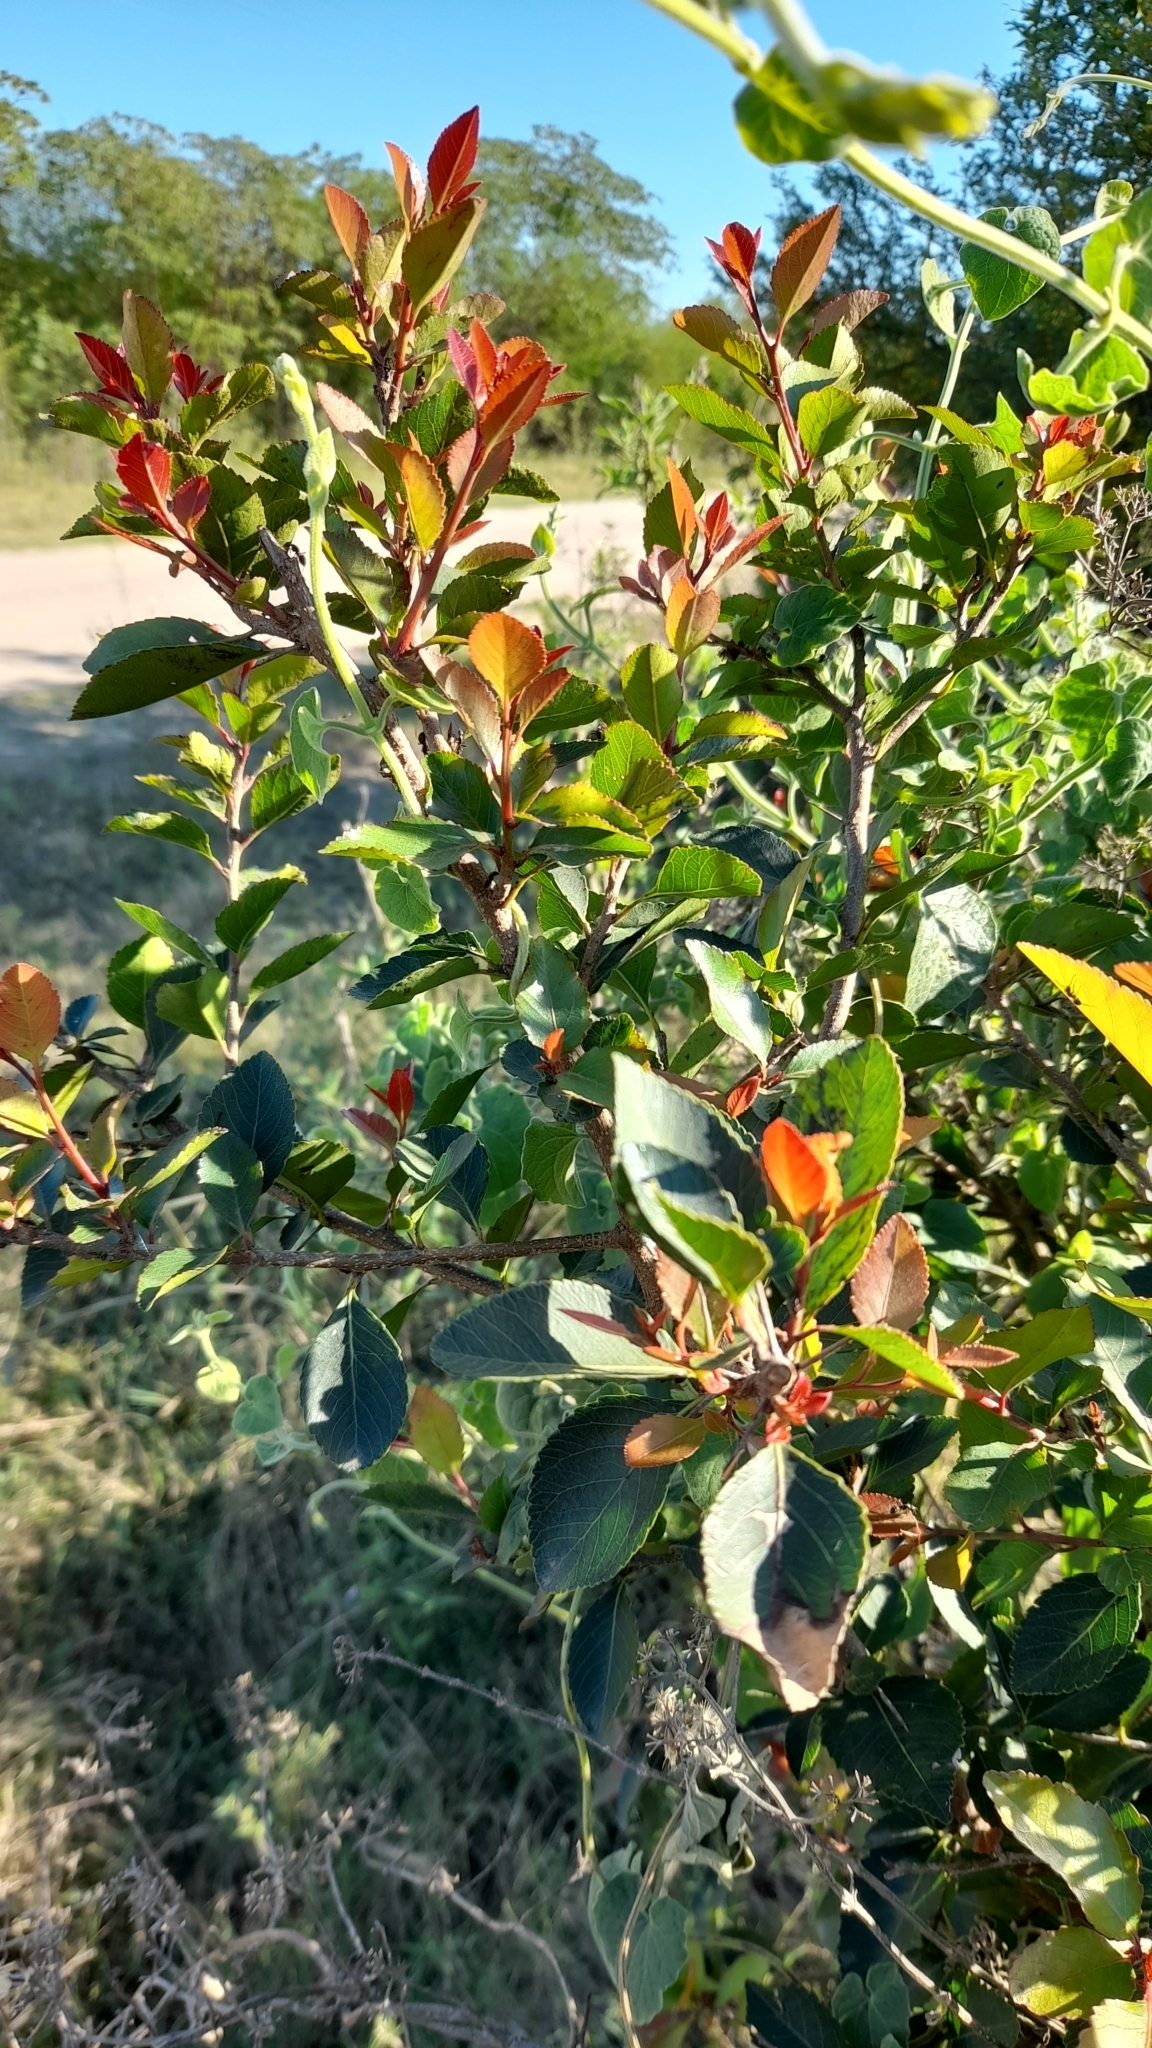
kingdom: Plantae
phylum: Tracheophyta
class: Magnoliopsida
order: Malpighiales
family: Salicaceae
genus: Xylosma
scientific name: Xylosma venosa
